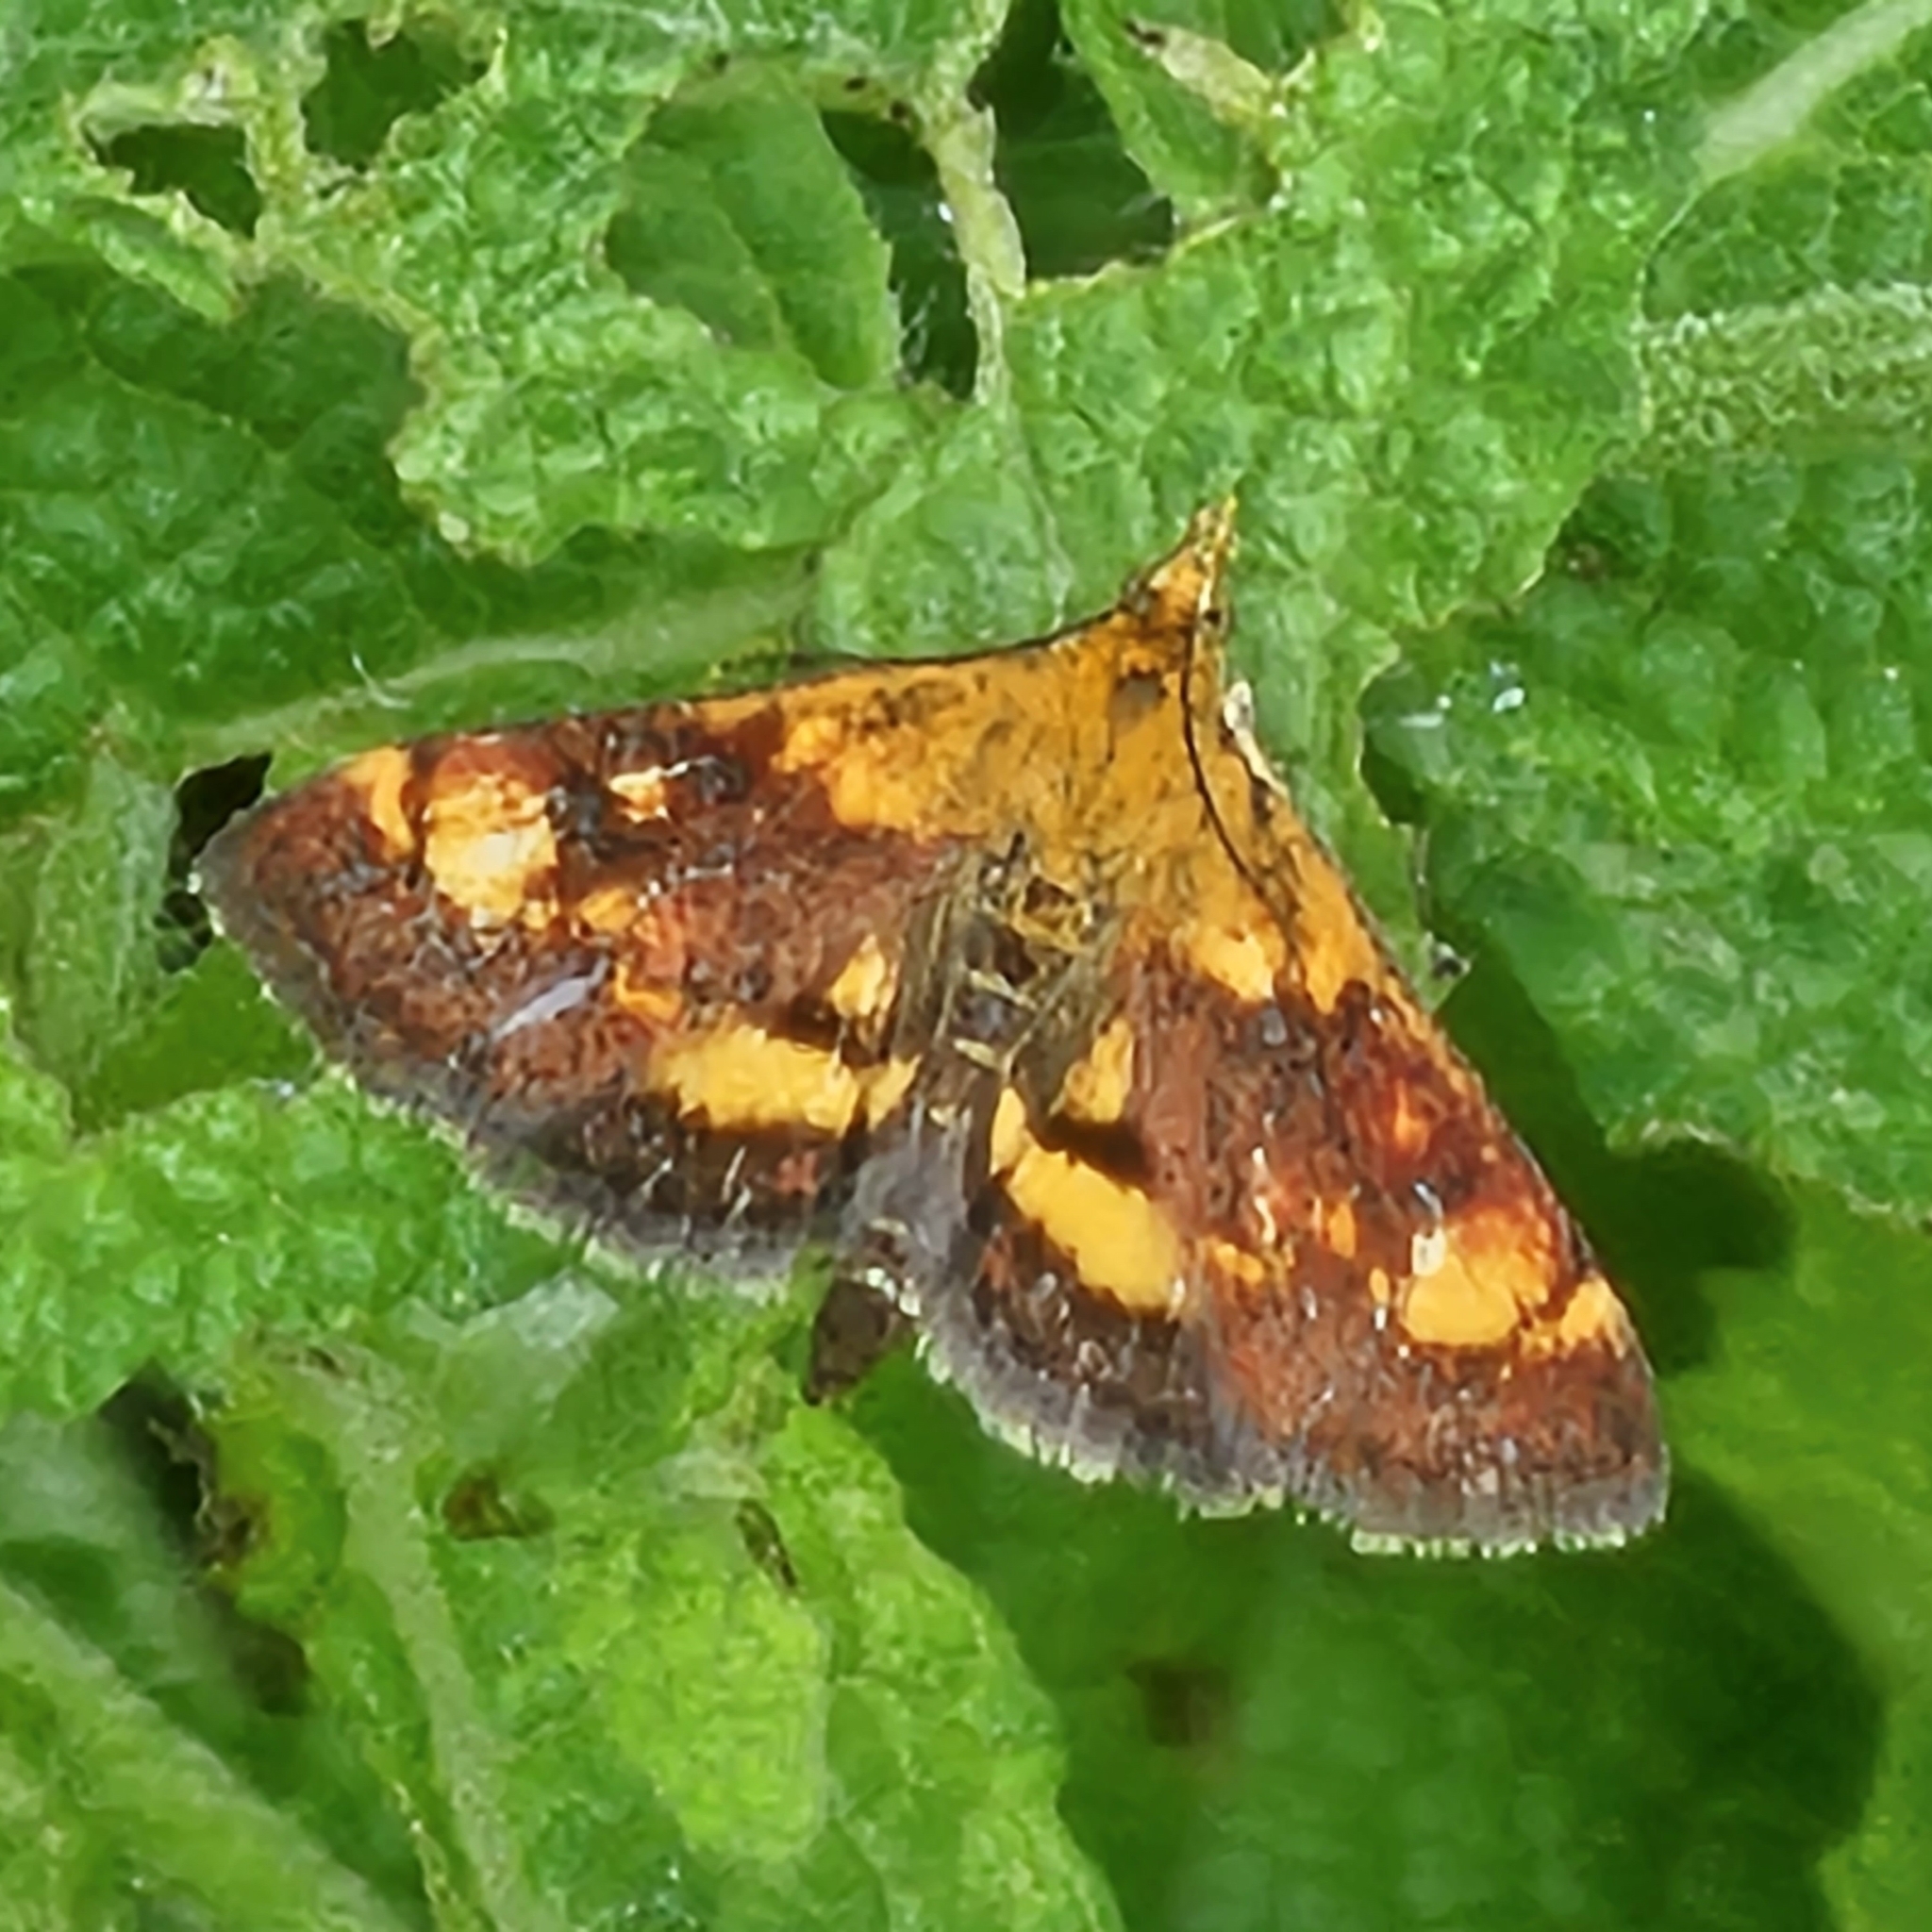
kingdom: Animalia
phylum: Arthropoda
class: Insecta
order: Lepidoptera
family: Crambidae
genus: Pyrausta
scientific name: Pyrausta orphisalis
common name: Orange mint moth
